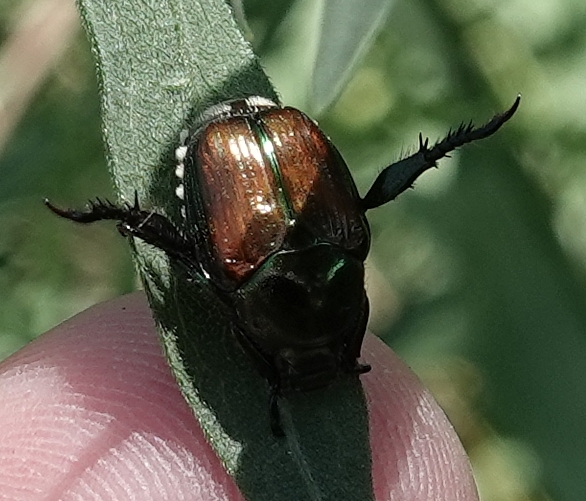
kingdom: Animalia
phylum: Arthropoda
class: Insecta
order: Coleoptera
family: Scarabaeidae
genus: Popillia
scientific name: Popillia japonica
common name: Japanese beetle
